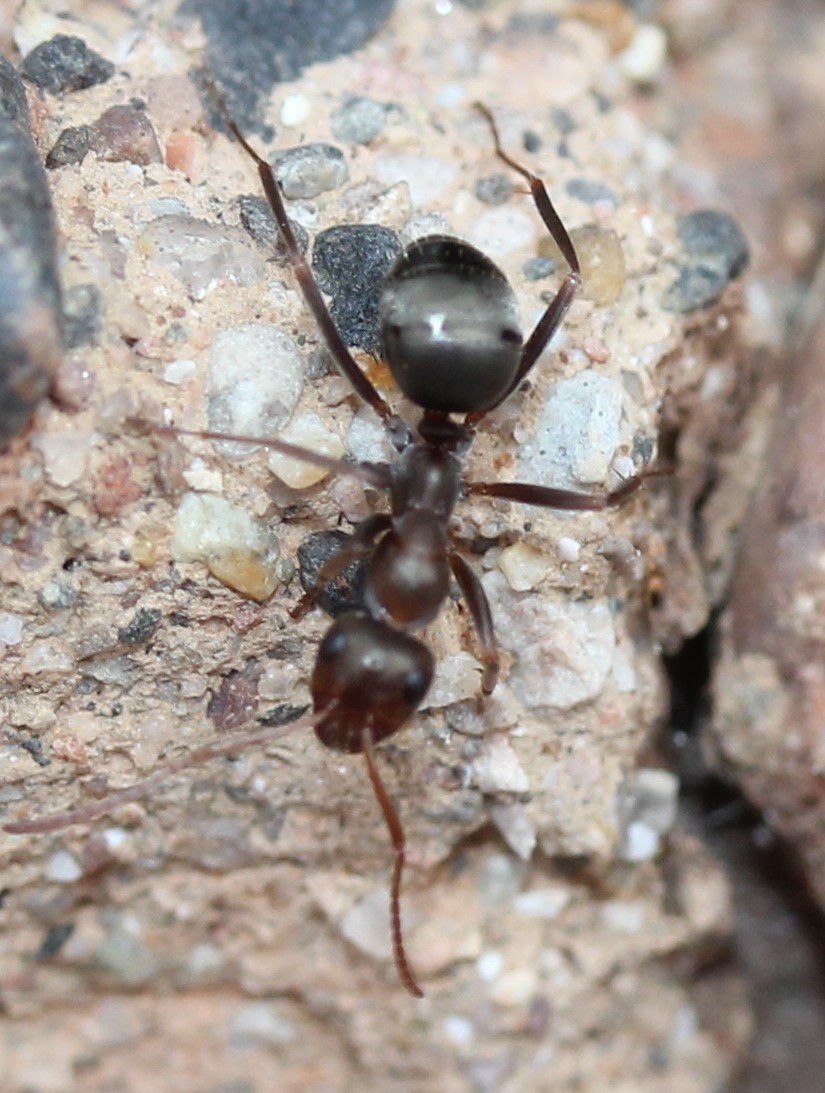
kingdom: Animalia
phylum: Arthropoda
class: Insecta
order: Hymenoptera
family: Formicidae
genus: Formica
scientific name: Formica gnava
